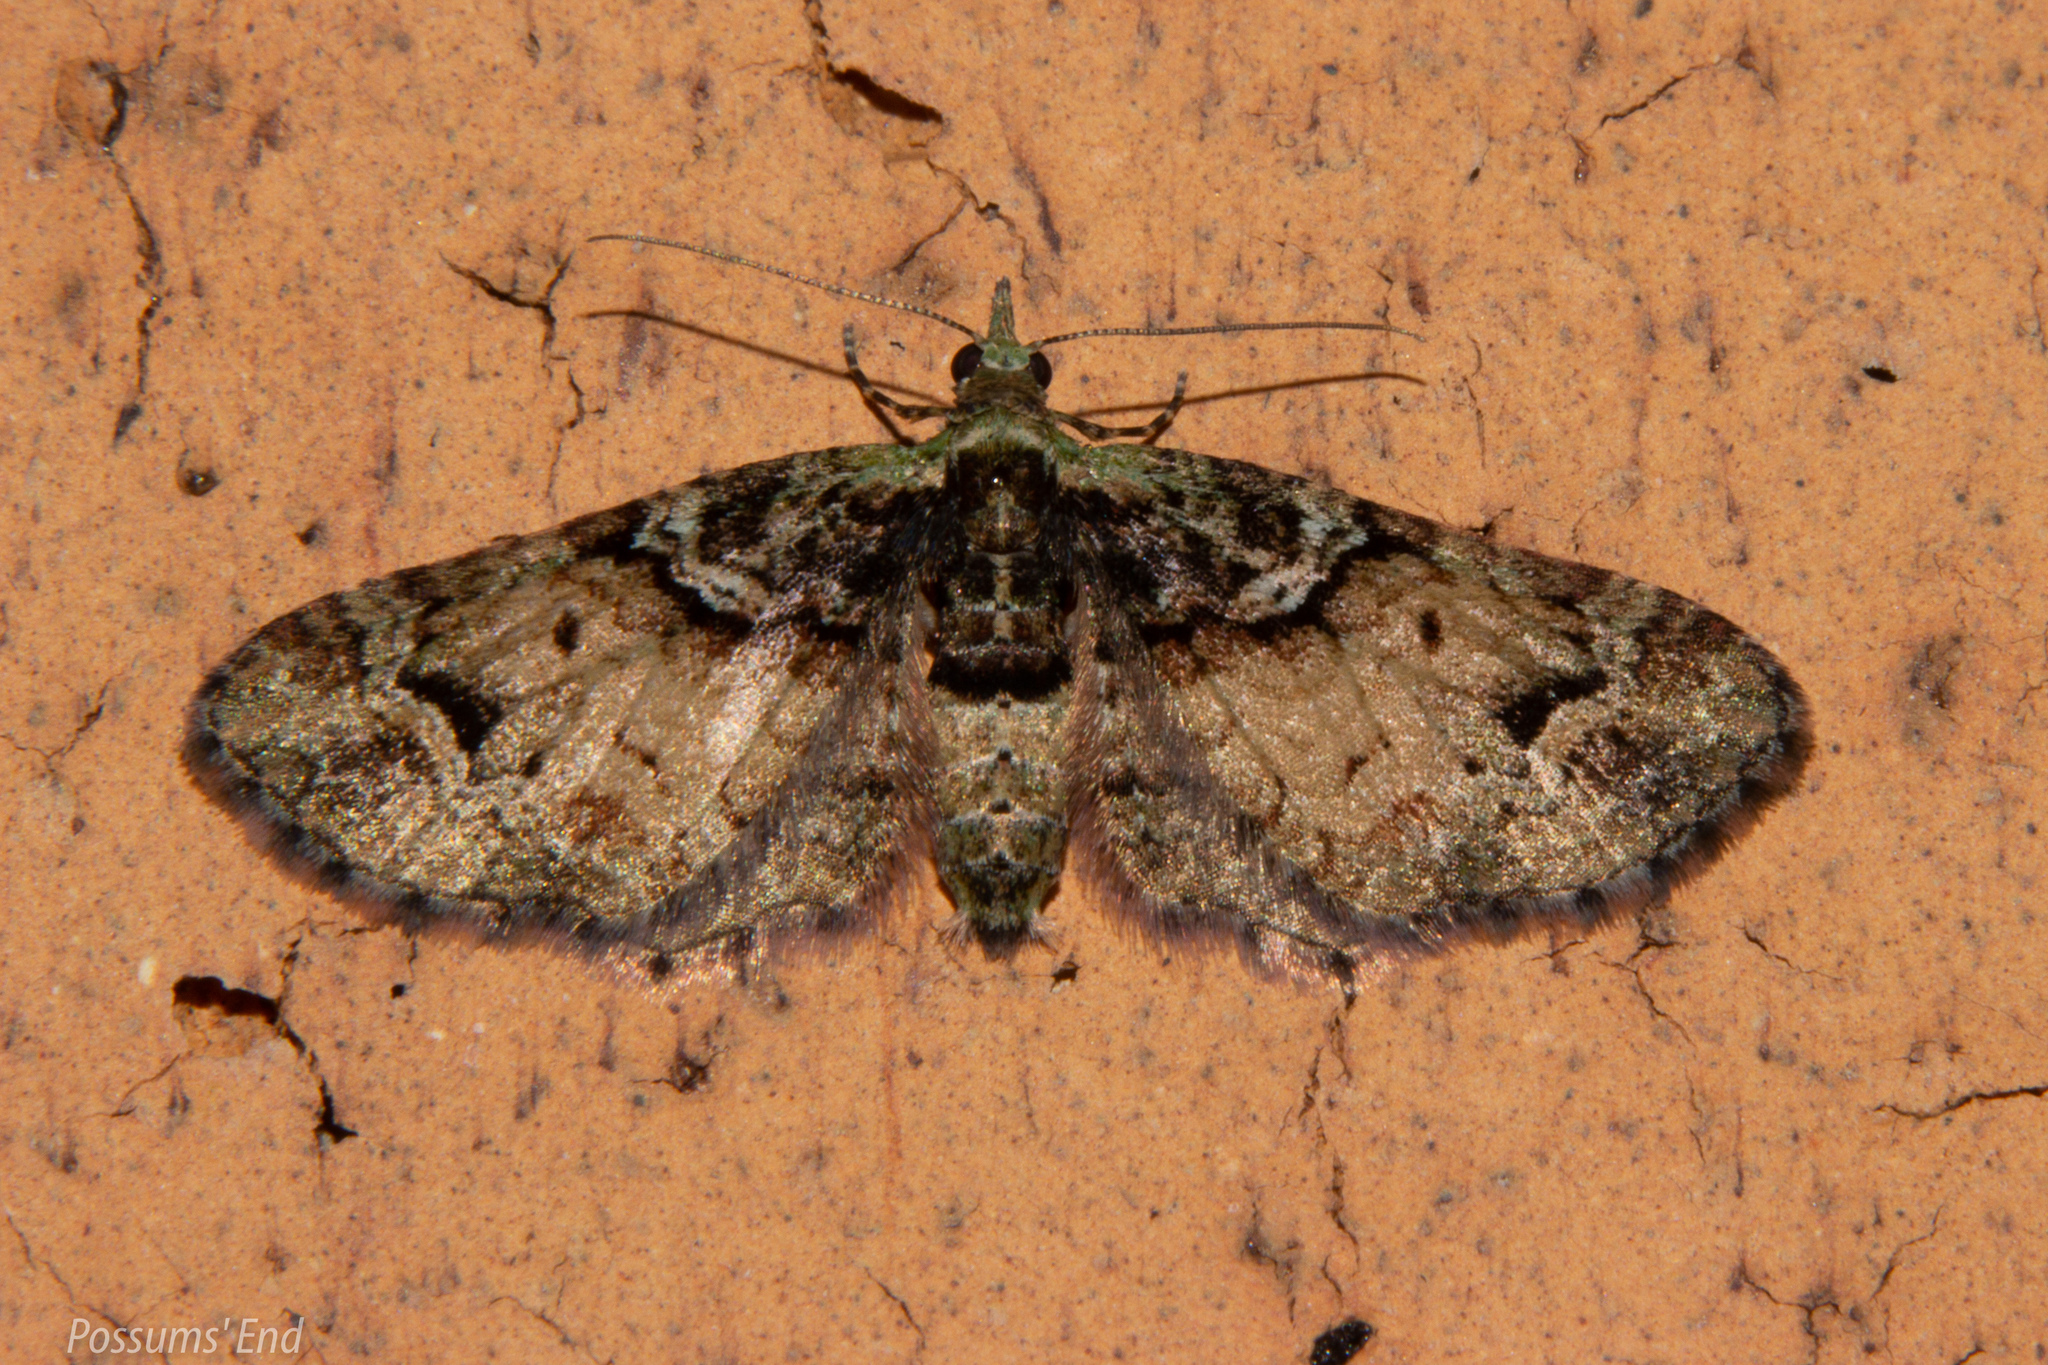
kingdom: Animalia
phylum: Arthropoda
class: Insecta
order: Lepidoptera
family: Geometridae
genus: Idaea
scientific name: Idaea mutanda
